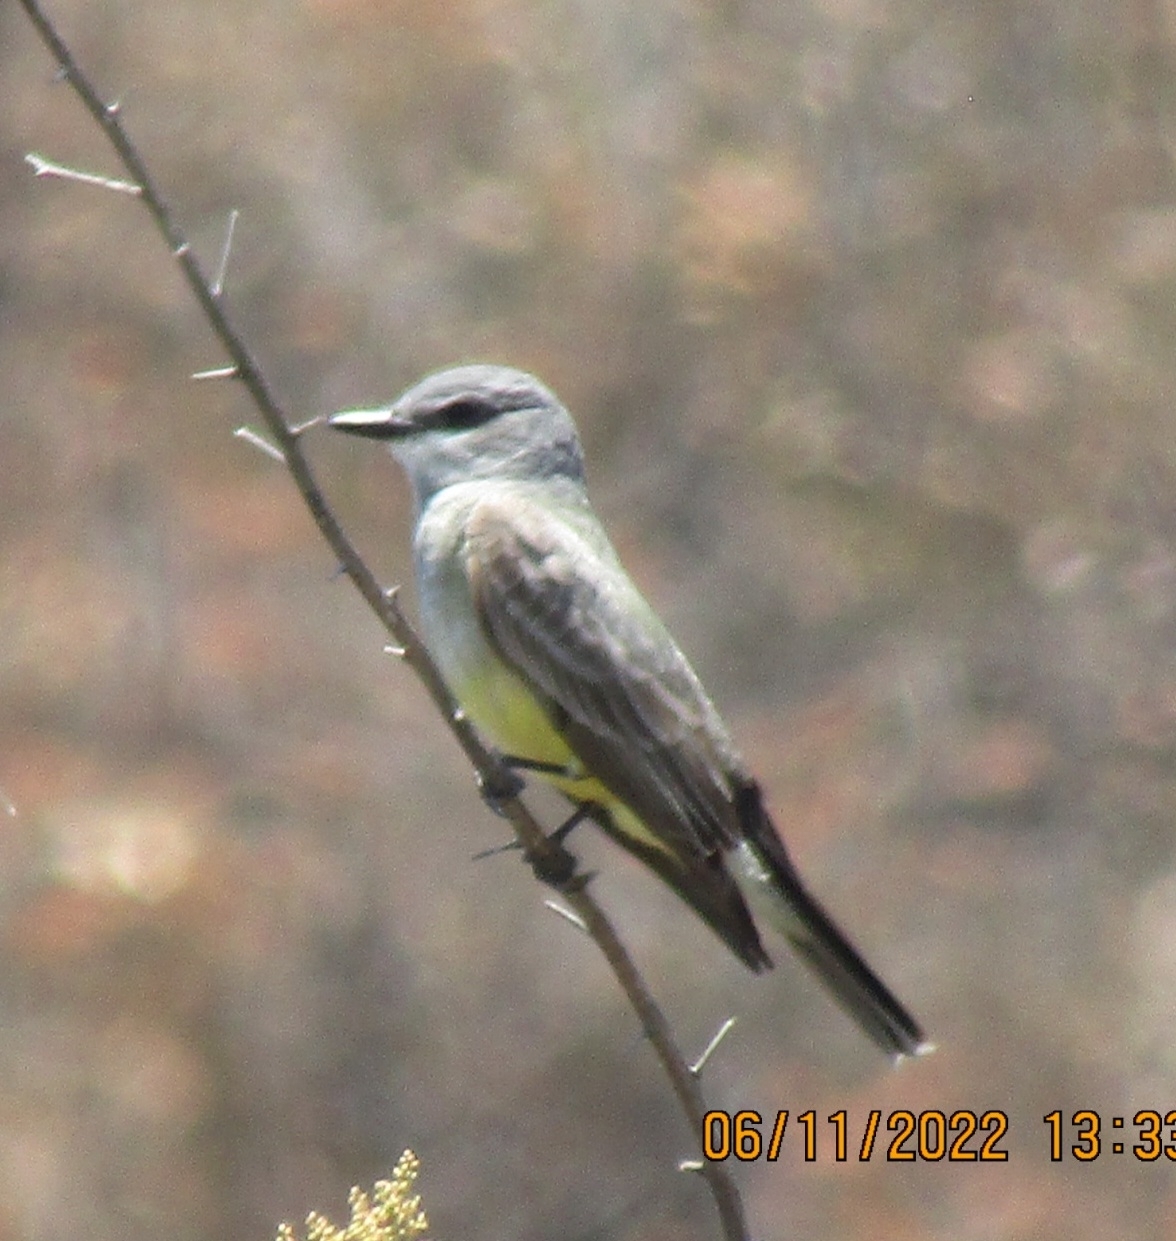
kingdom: Animalia
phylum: Chordata
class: Aves
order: Passeriformes
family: Tyrannidae
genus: Tyrannus
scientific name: Tyrannus vociferans
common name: Cassin's kingbird
